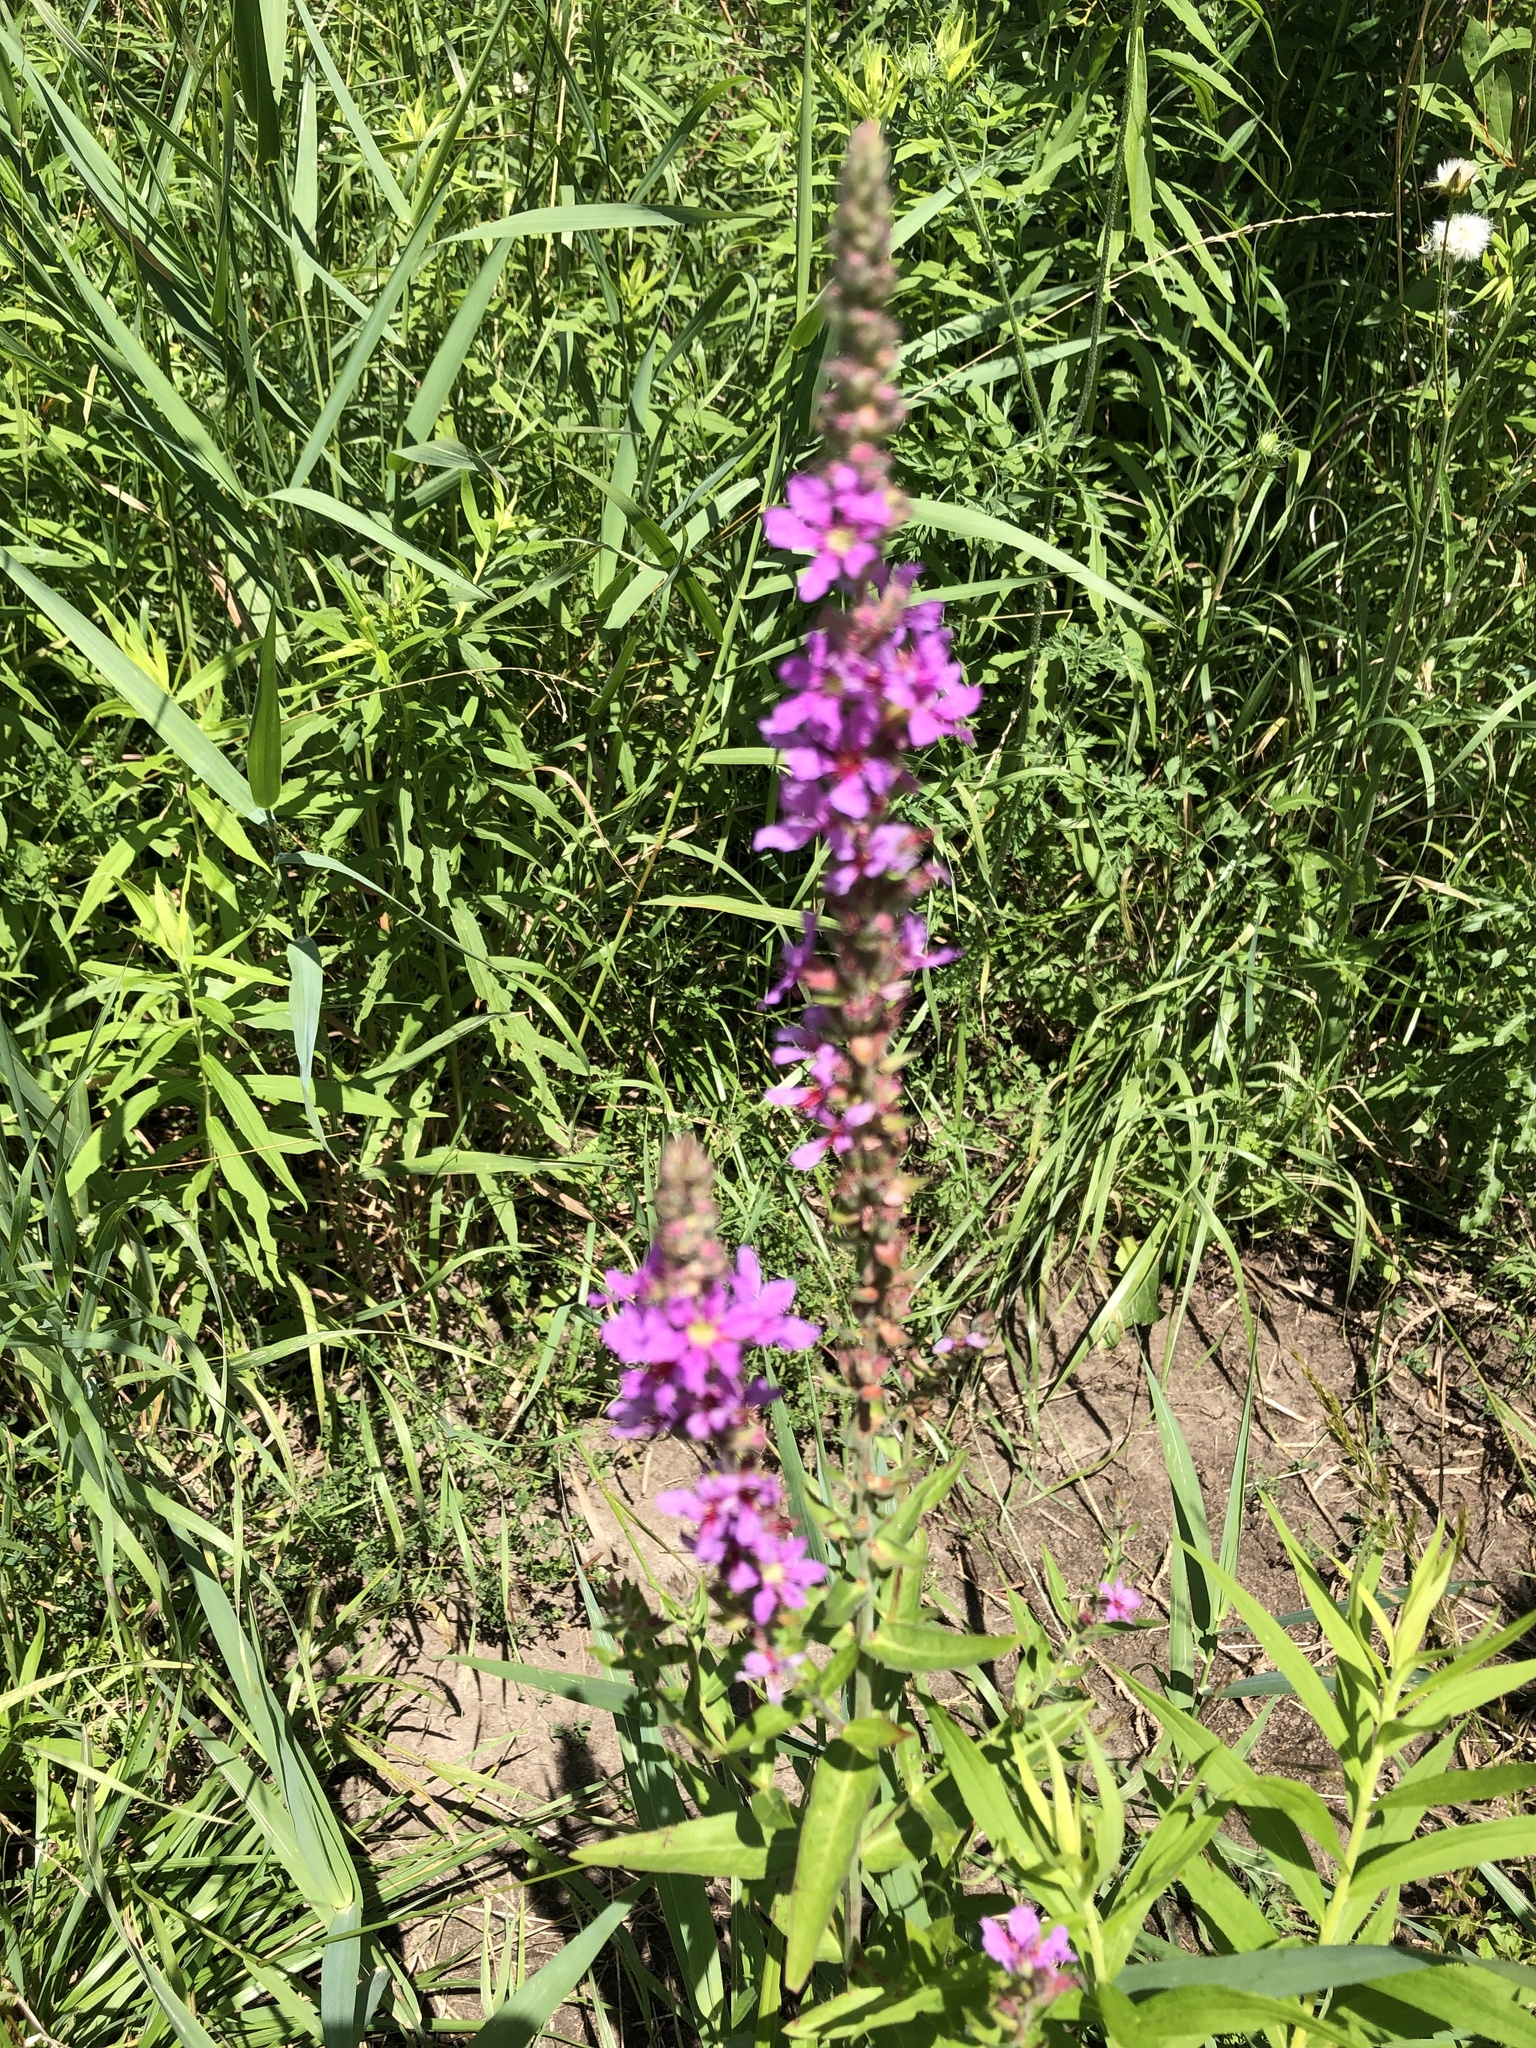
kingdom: Plantae
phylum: Tracheophyta
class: Magnoliopsida
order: Myrtales
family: Lythraceae
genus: Lythrum
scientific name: Lythrum salicaria
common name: Purple loosestrife
